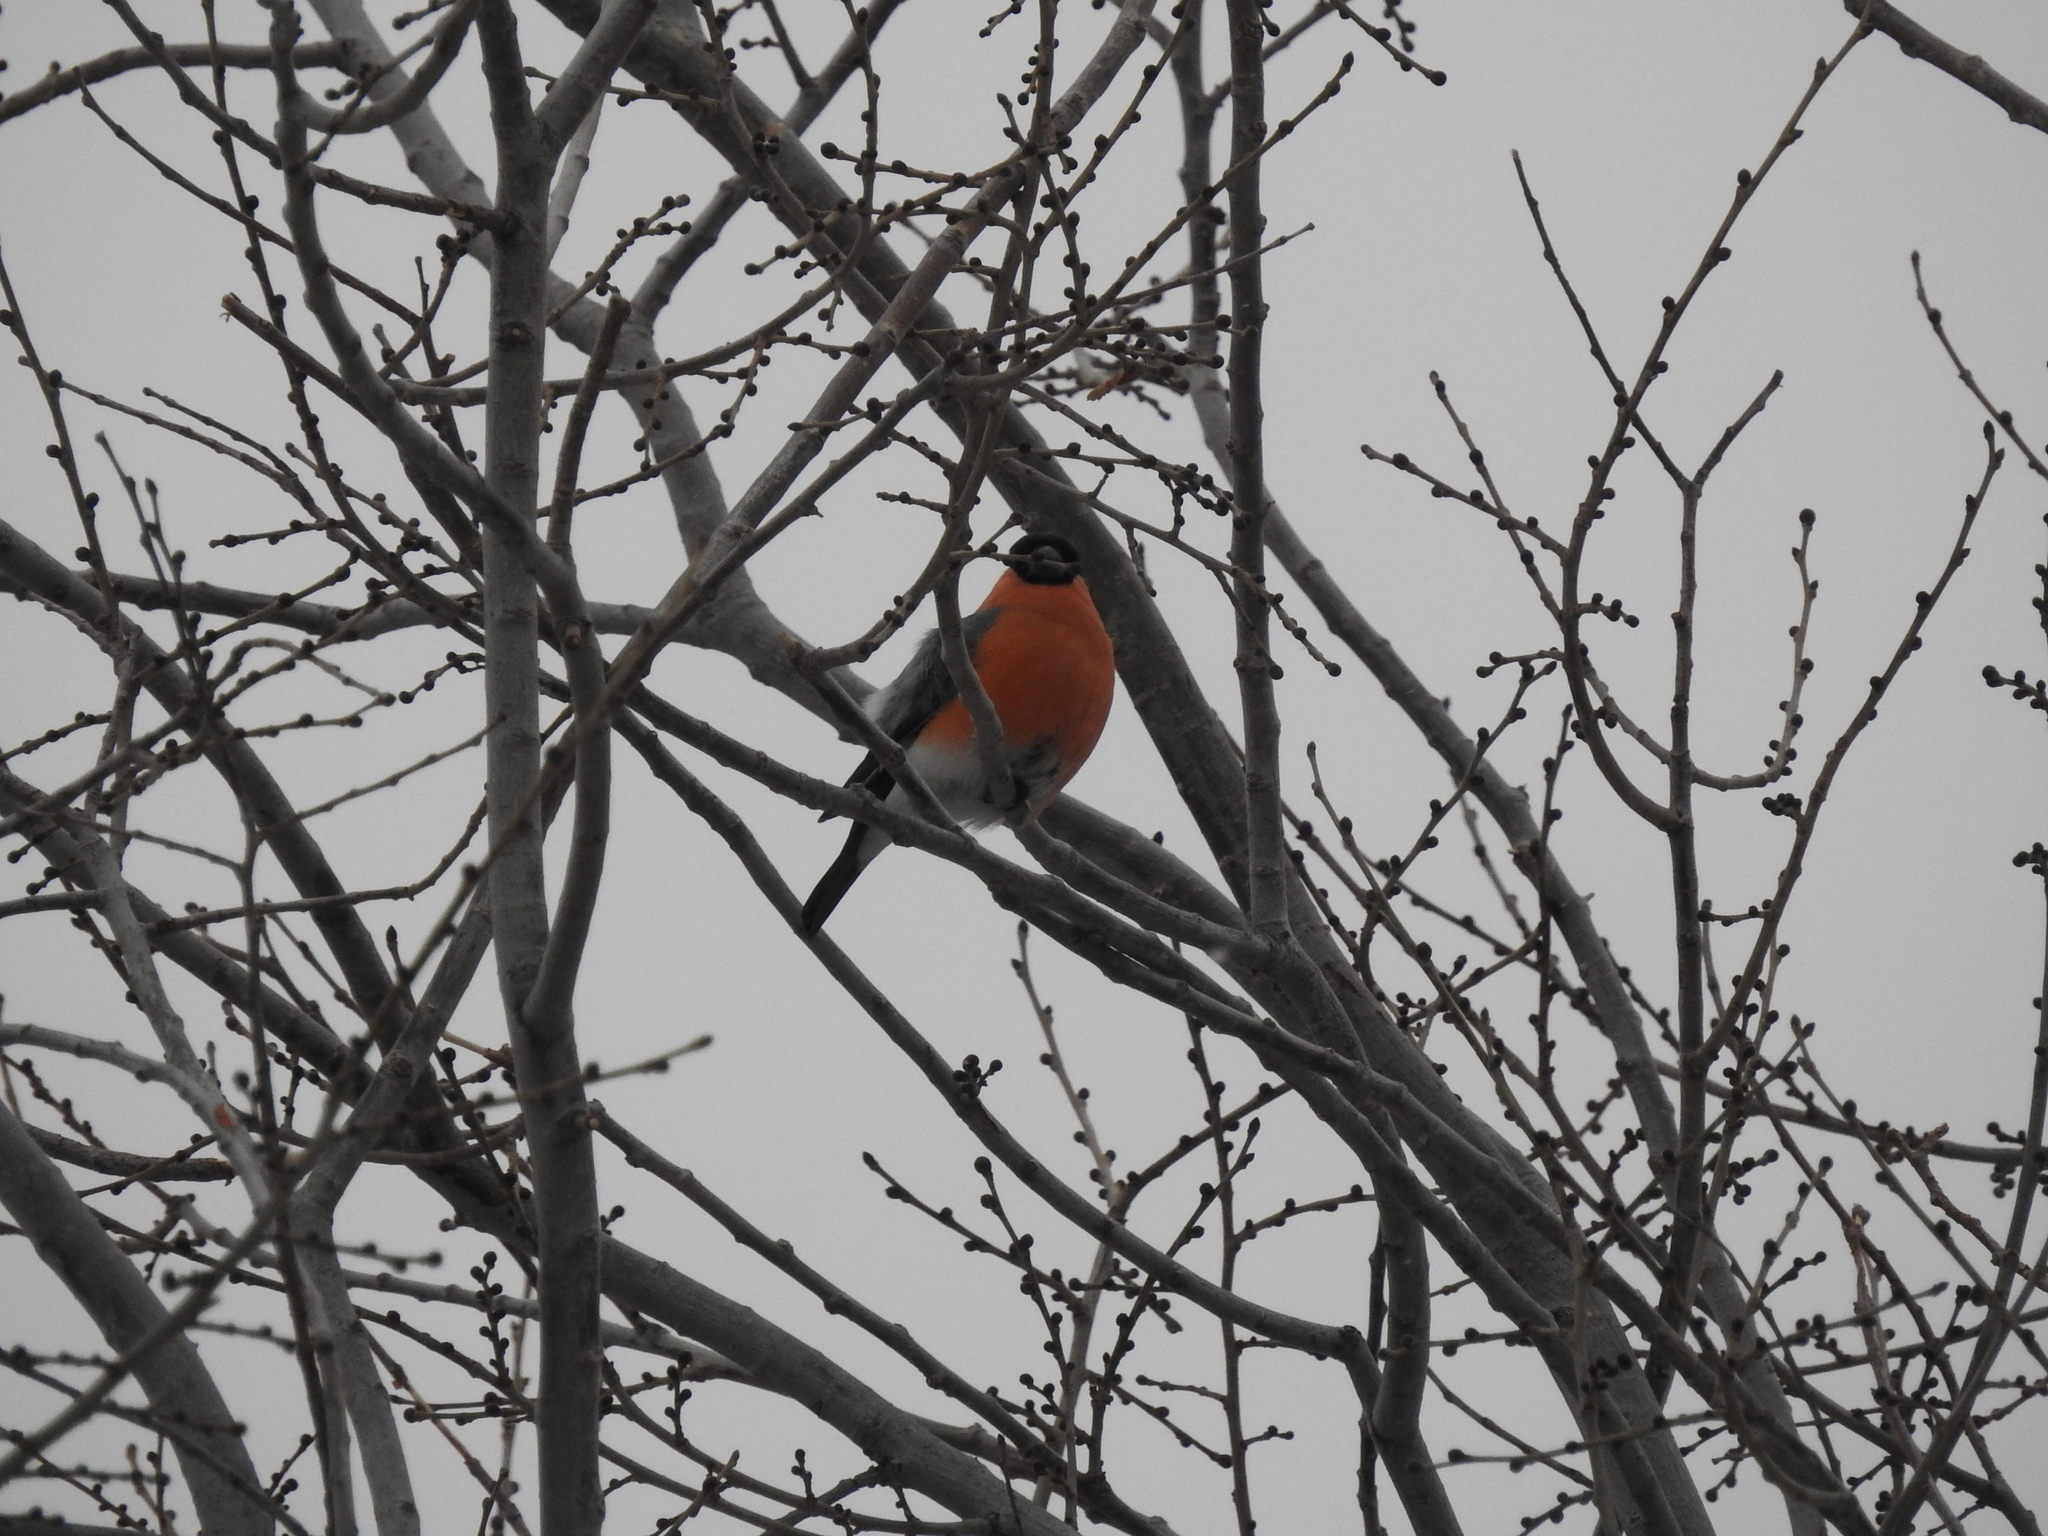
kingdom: Animalia
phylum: Chordata
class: Aves
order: Passeriformes
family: Fringillidae
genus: Pyrrhula
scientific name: Pyrrhula pyrrhula
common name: Eurasian bullfinch
